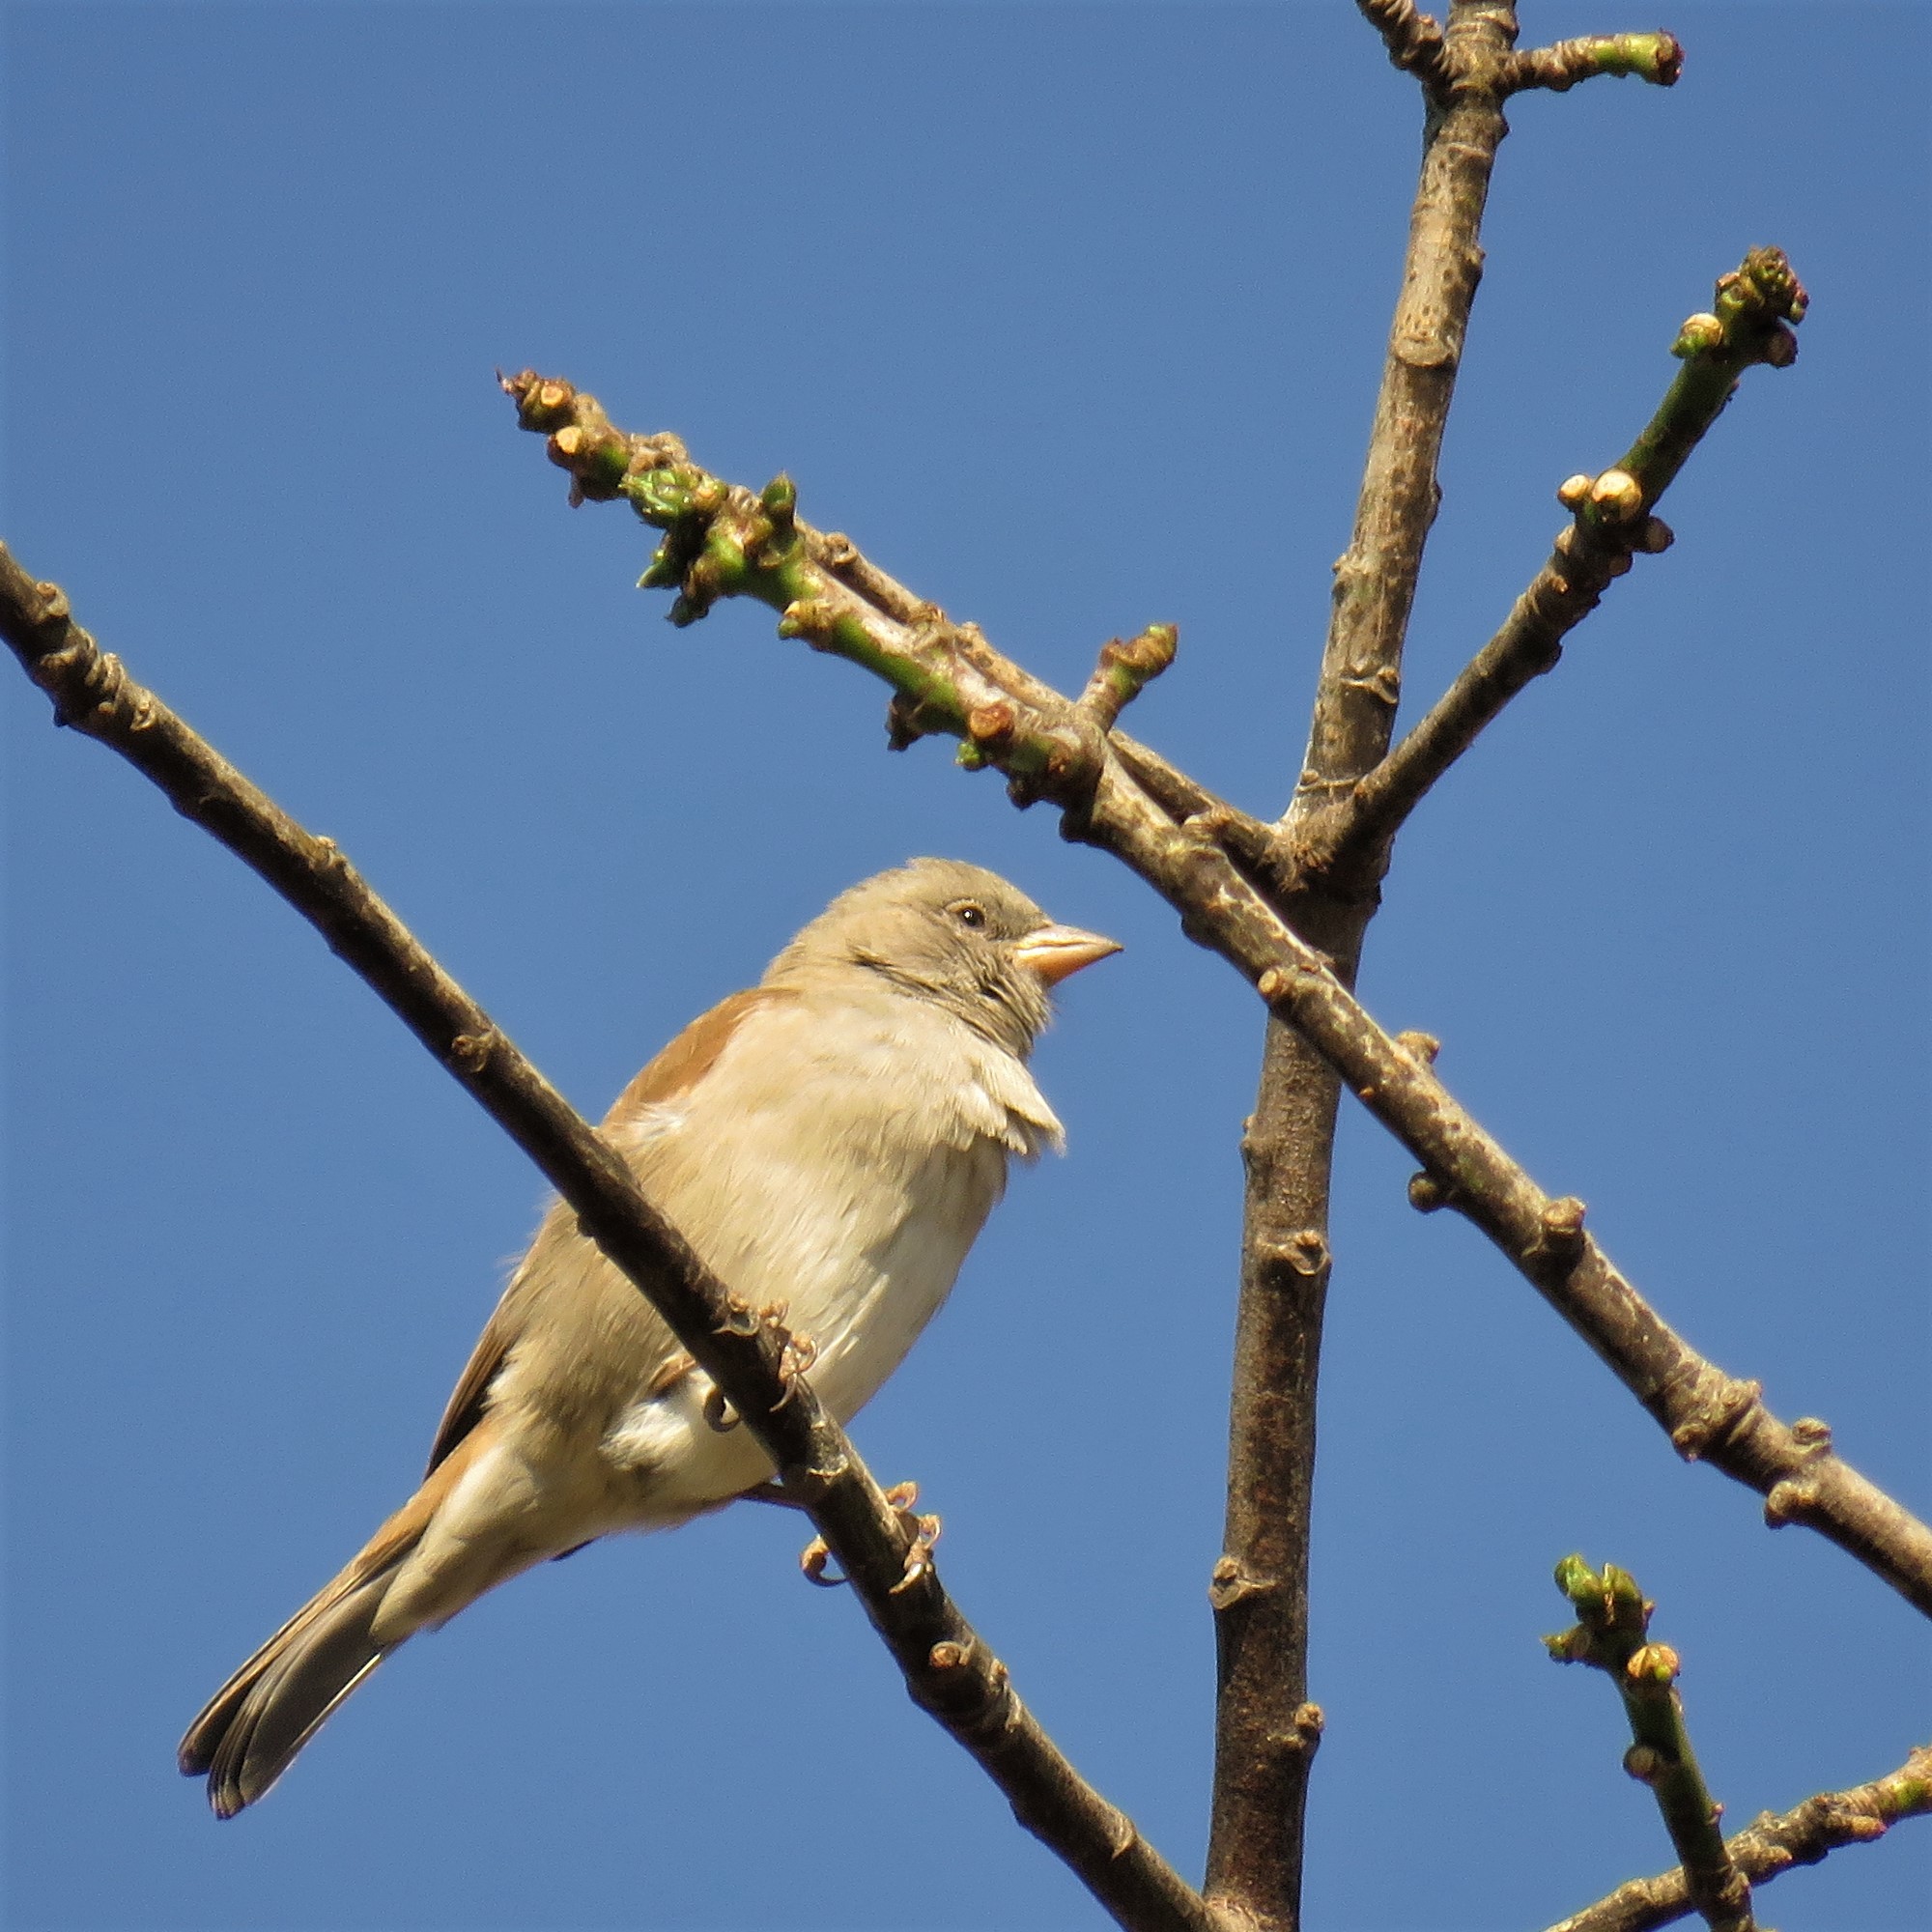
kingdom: Animalia
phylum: Chordata
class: Aves
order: Passeriformes
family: Passeridae
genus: Passer
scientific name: Passer diffusus
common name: Southern grey-headed sparrow
